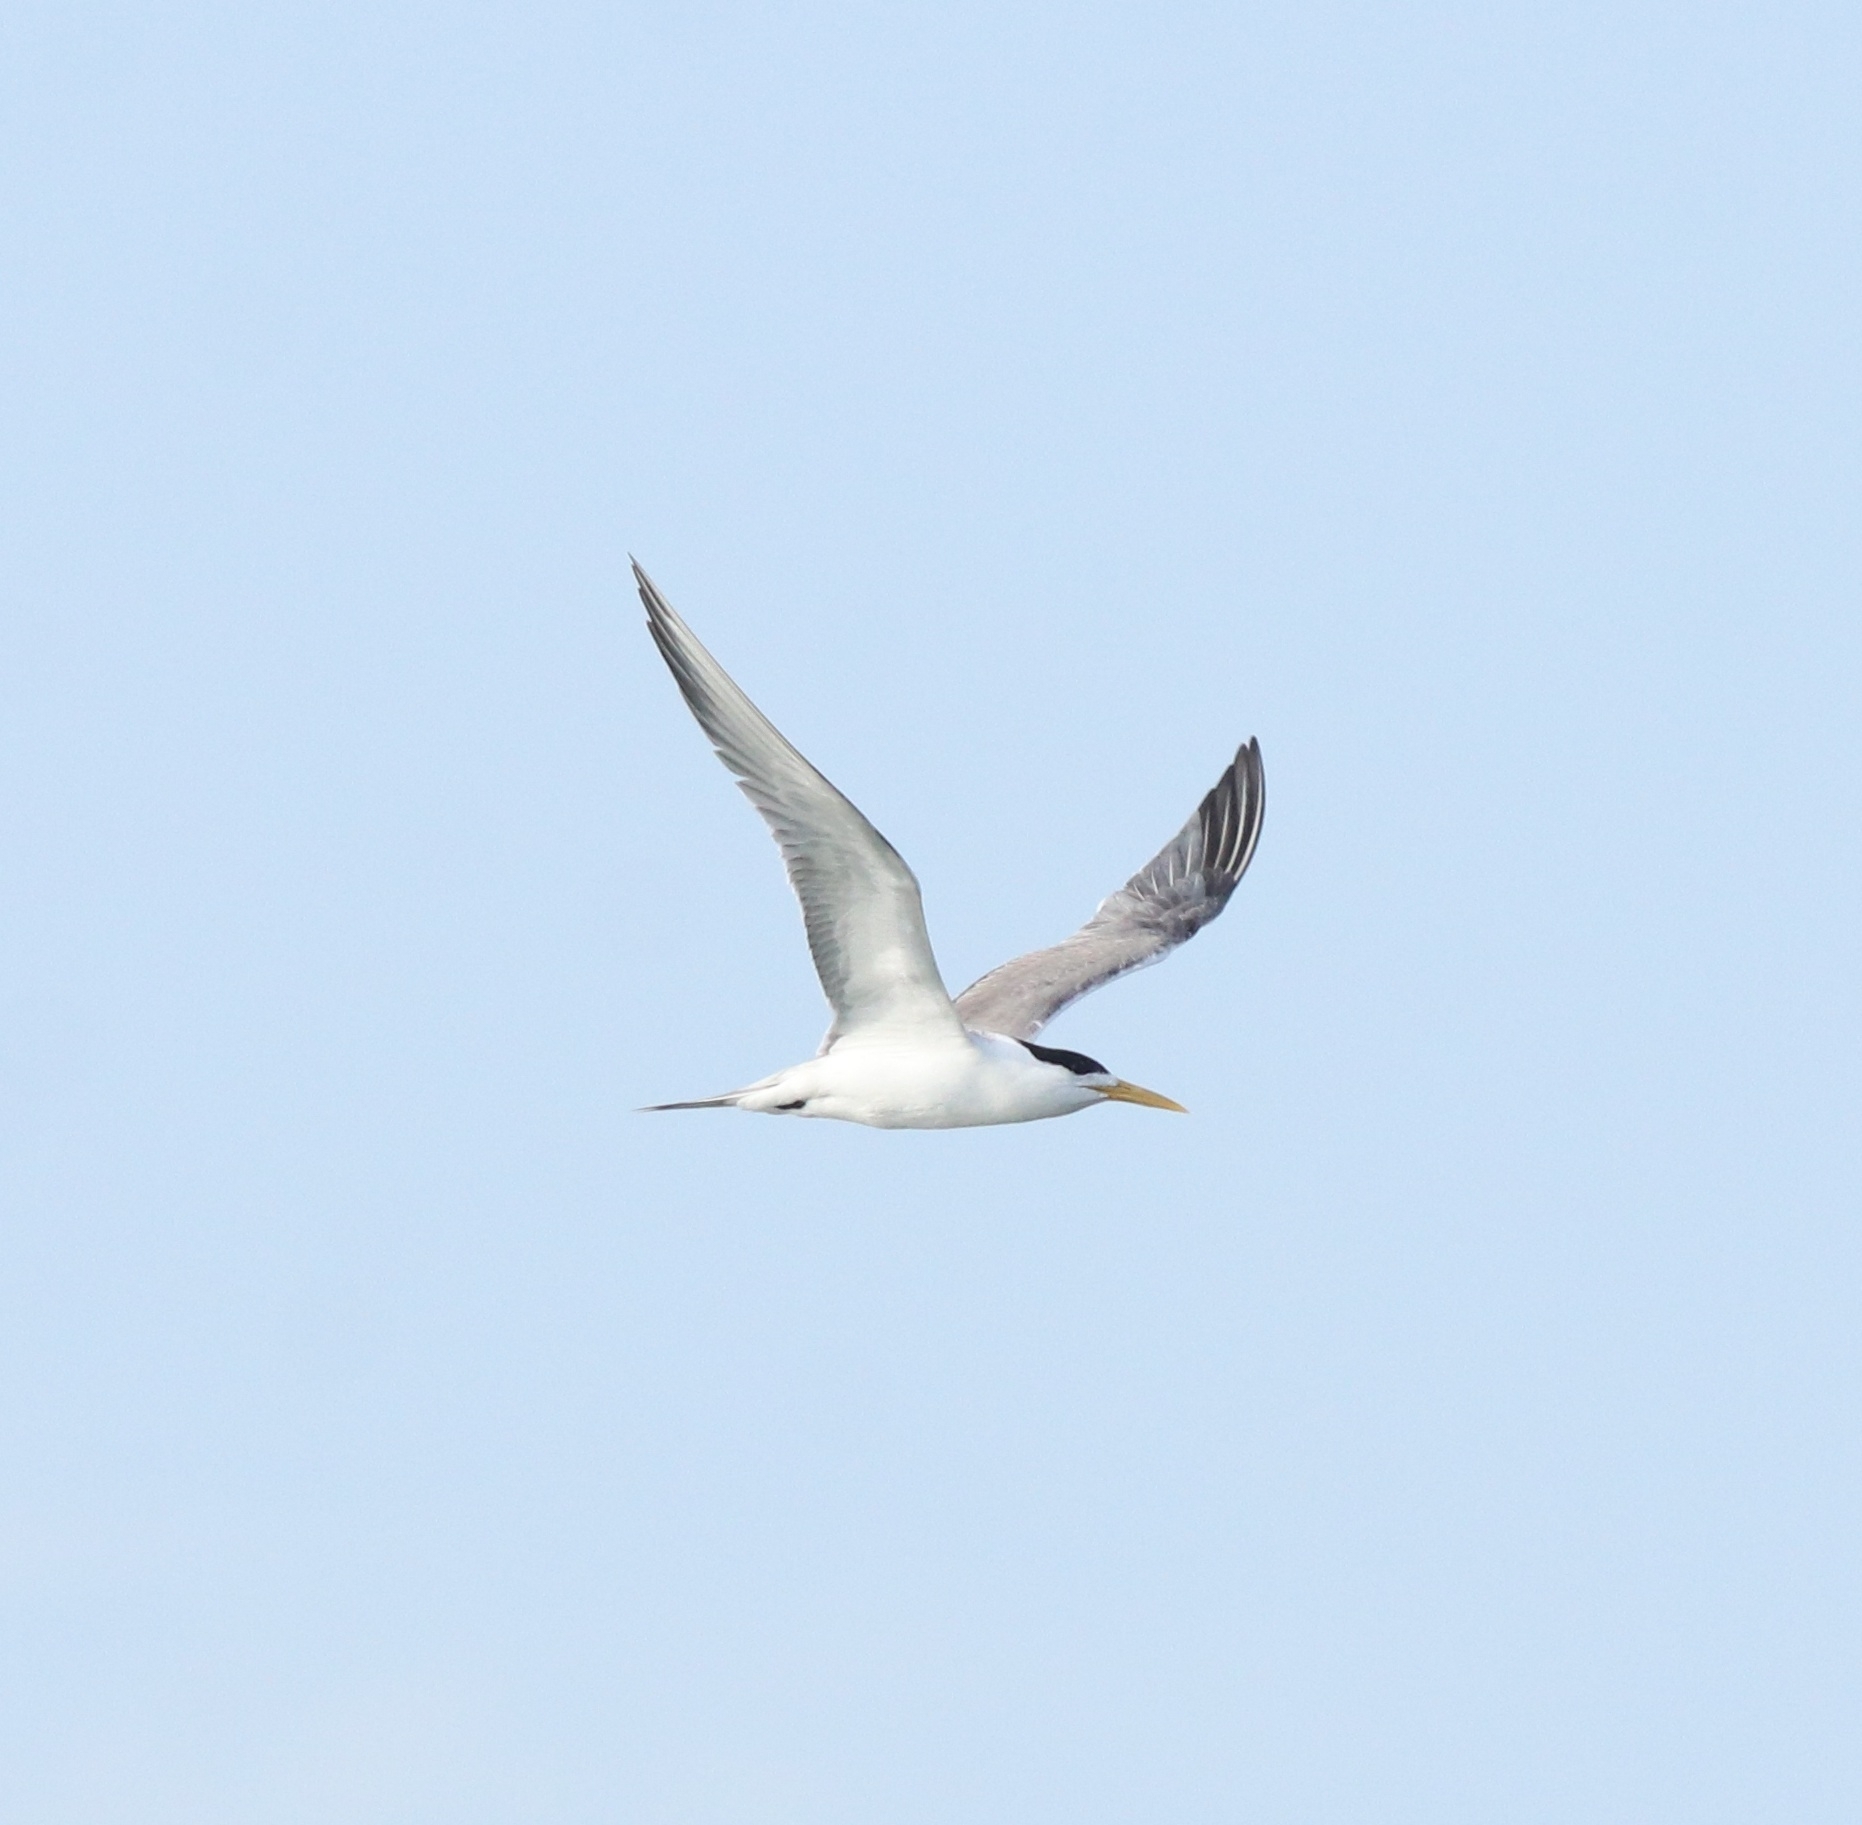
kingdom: Animalia
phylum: Chordata
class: Aves
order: Charadriiformes
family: Laridae
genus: Thalasseus
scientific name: Thalasseus bergii
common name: Greater crested tern
